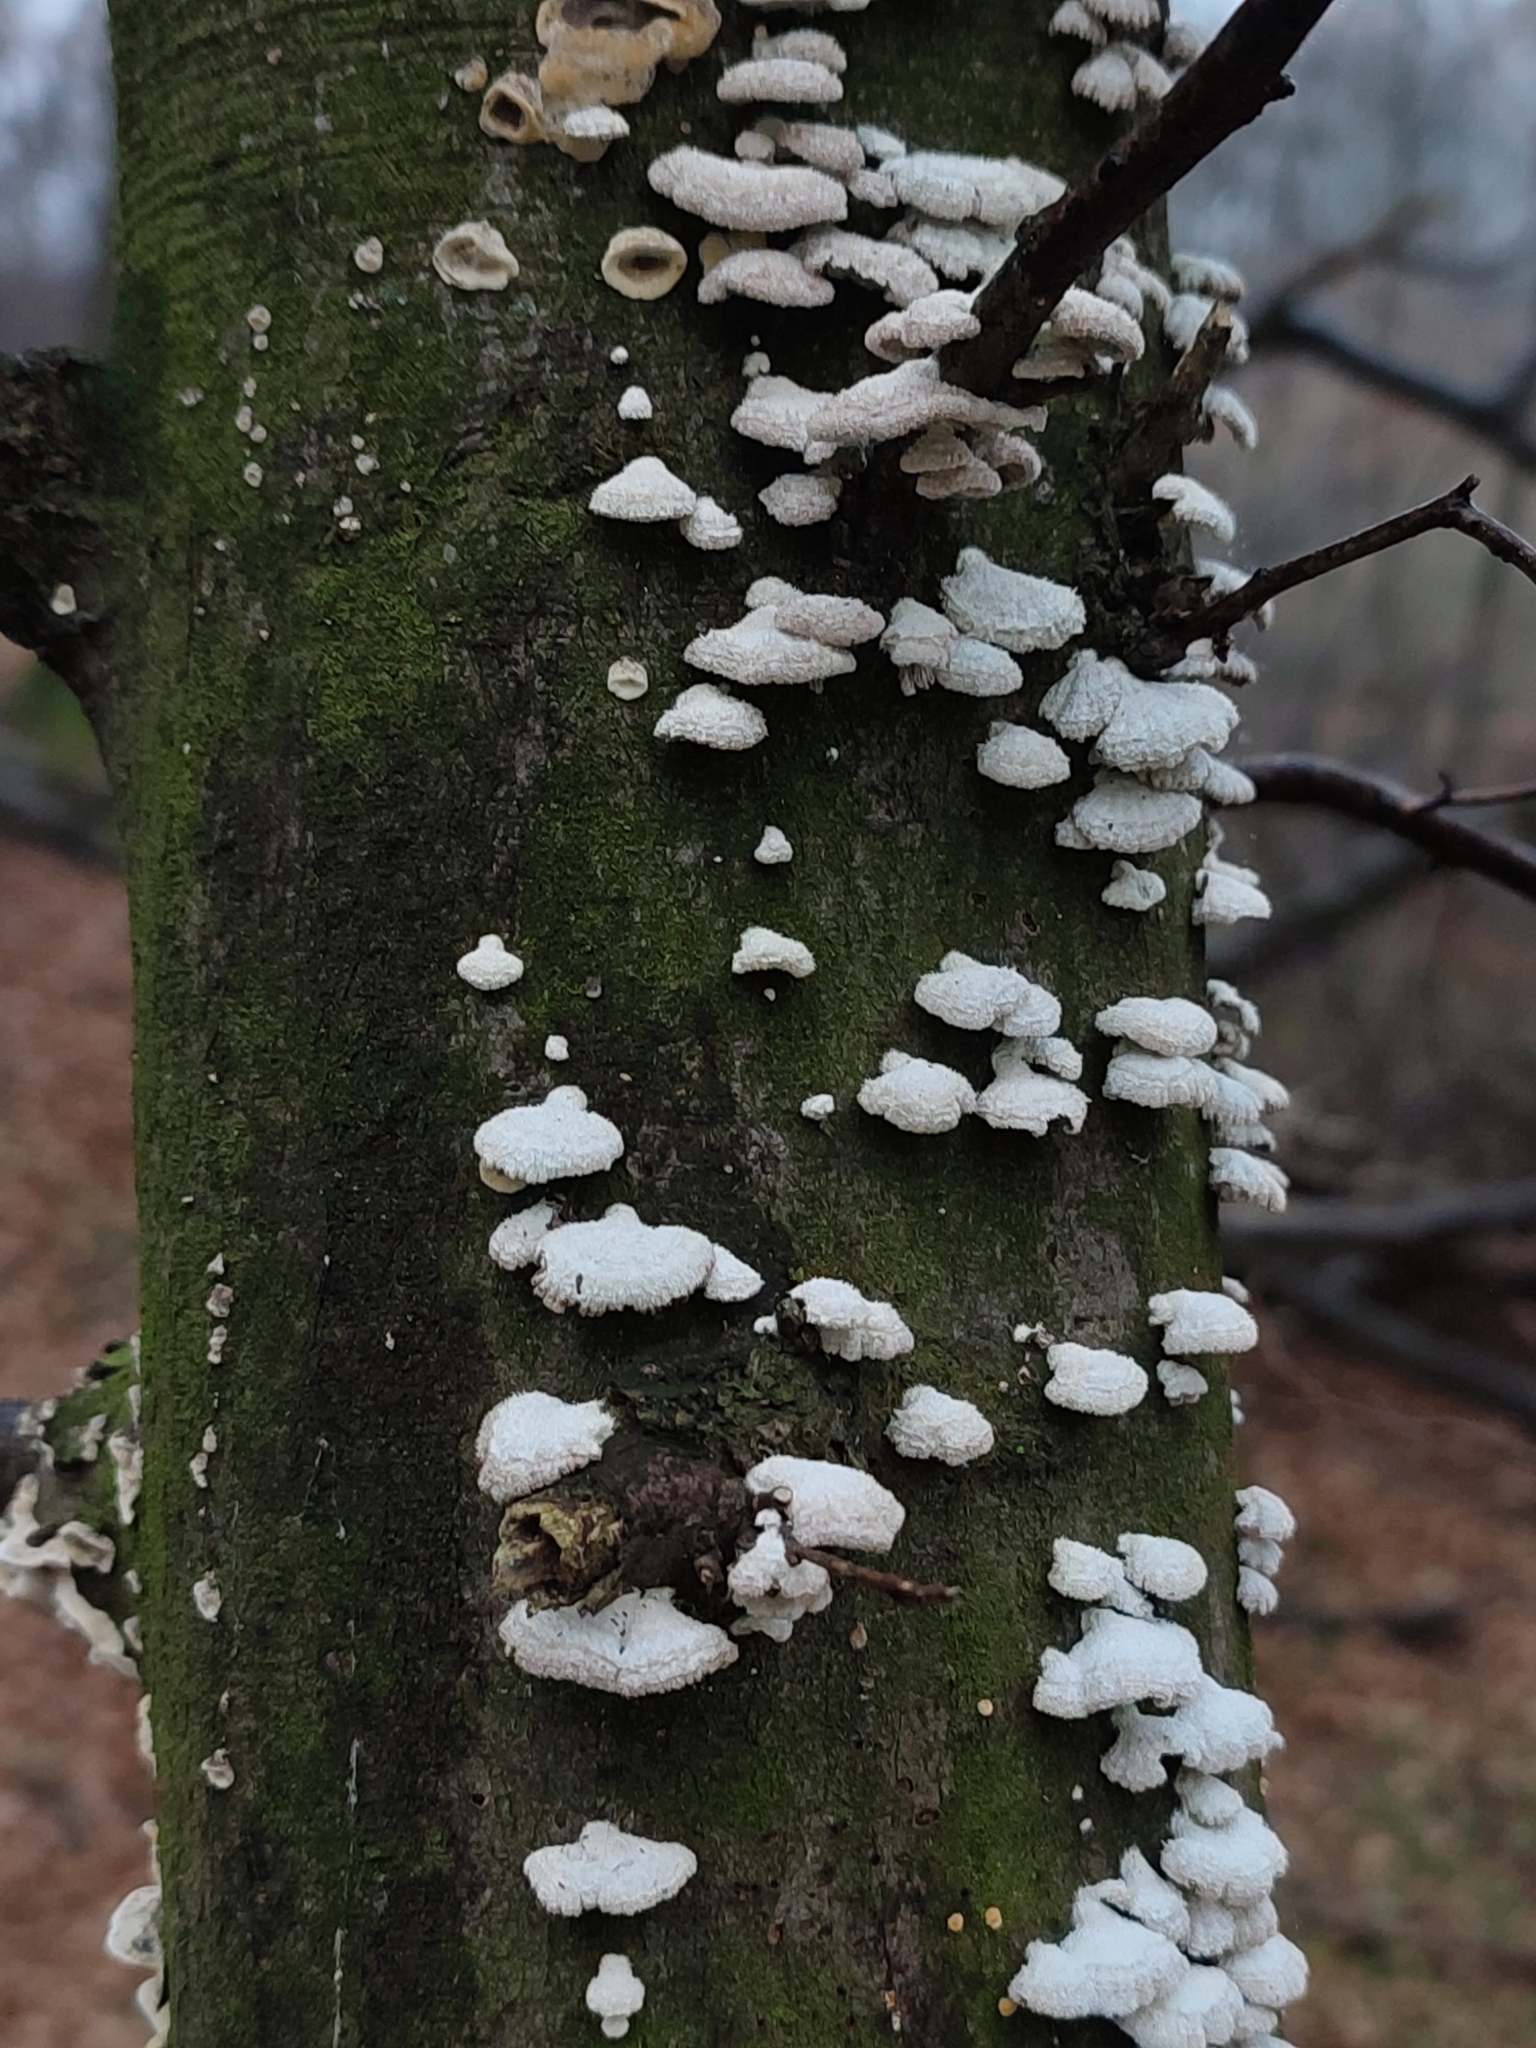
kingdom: Fungi
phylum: Basidiomycota
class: Agaricomycetes
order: Agaricales
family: Schizophyllaceae
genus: Schizophyllum
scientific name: Schizophyllum commune
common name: Common porecrust
